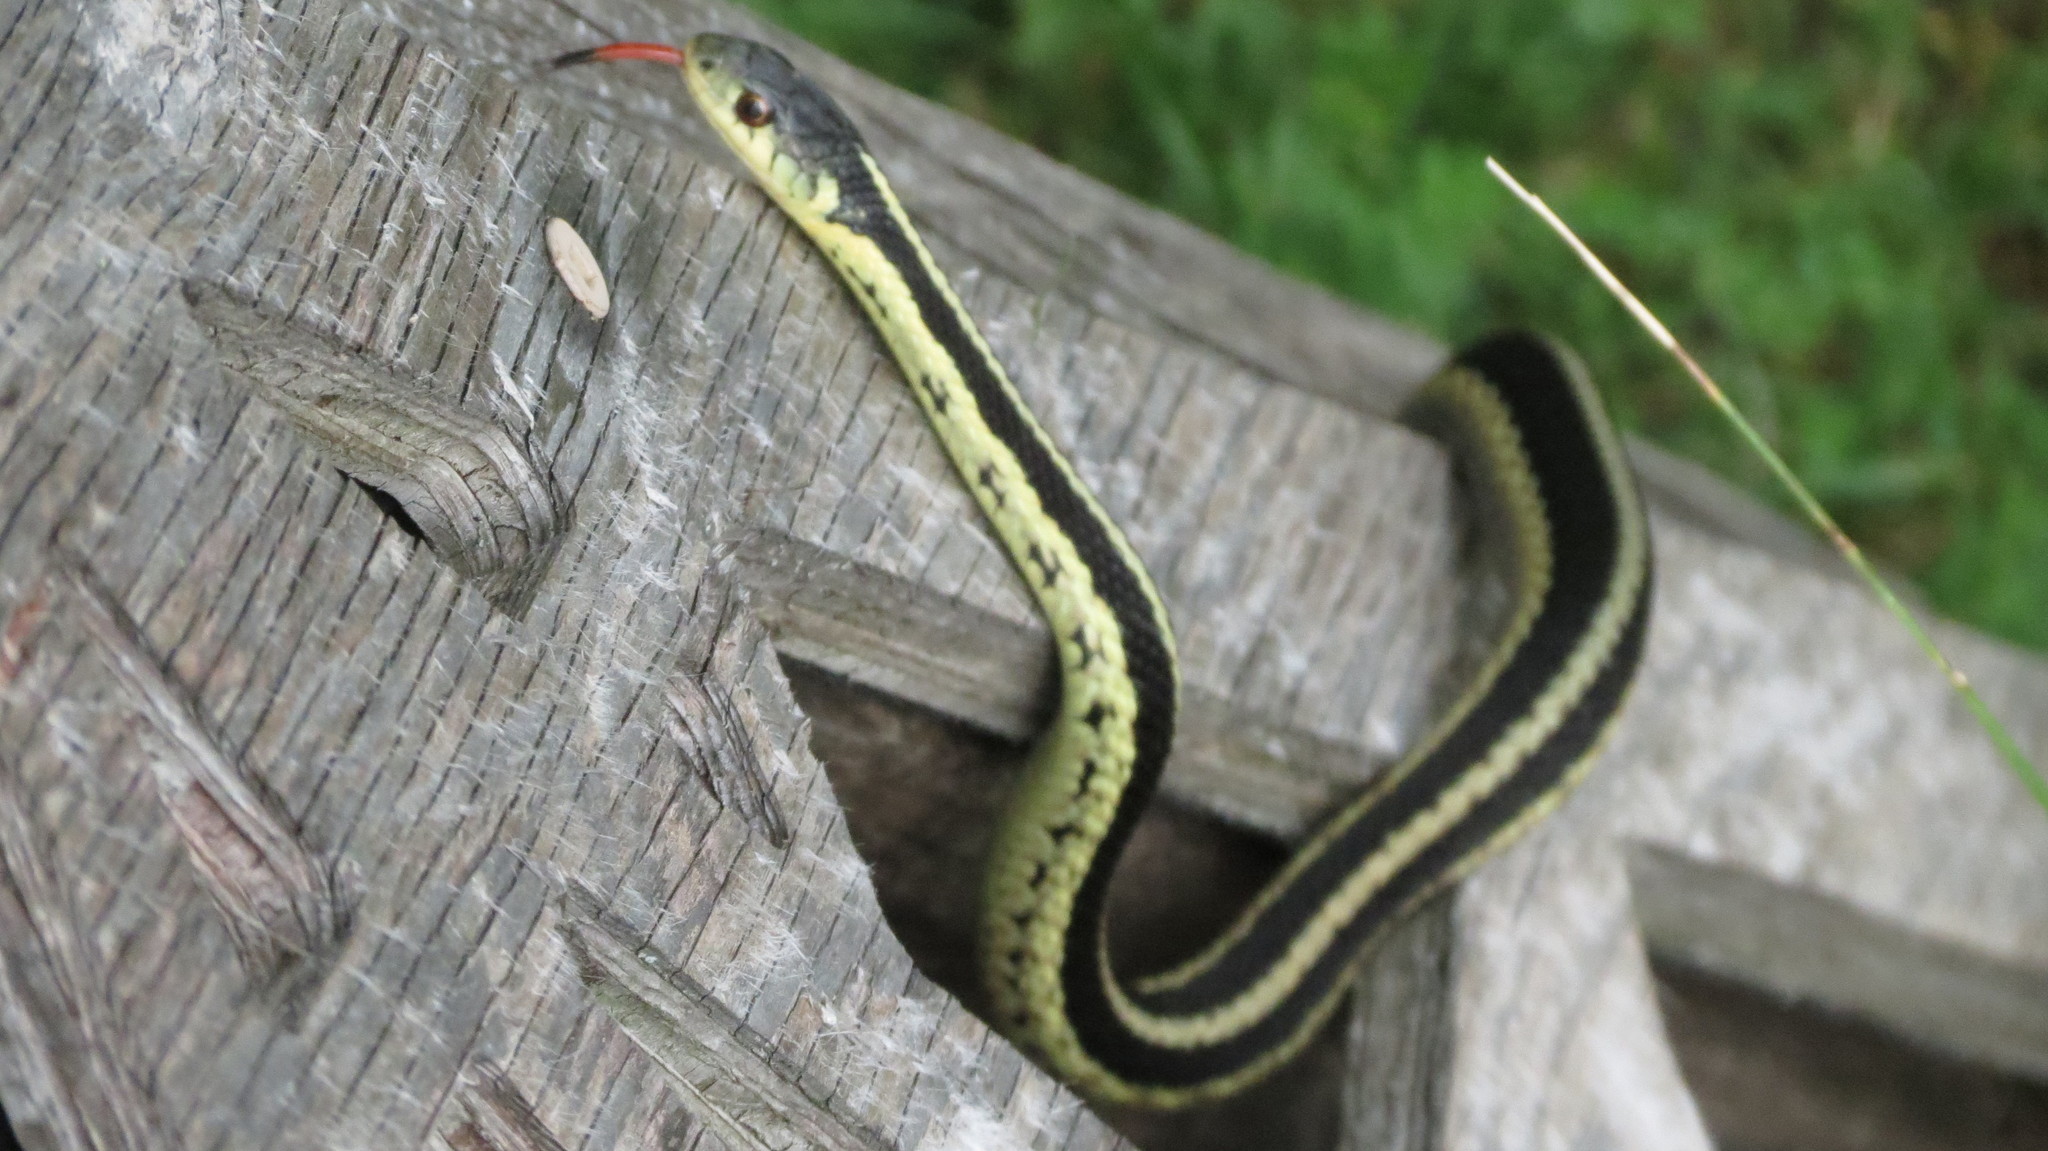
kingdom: Animalia
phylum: Chordata
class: Squamata
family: Colubridae
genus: Thamnophis
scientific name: Thamnophis sirtalis
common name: Common garter snake
